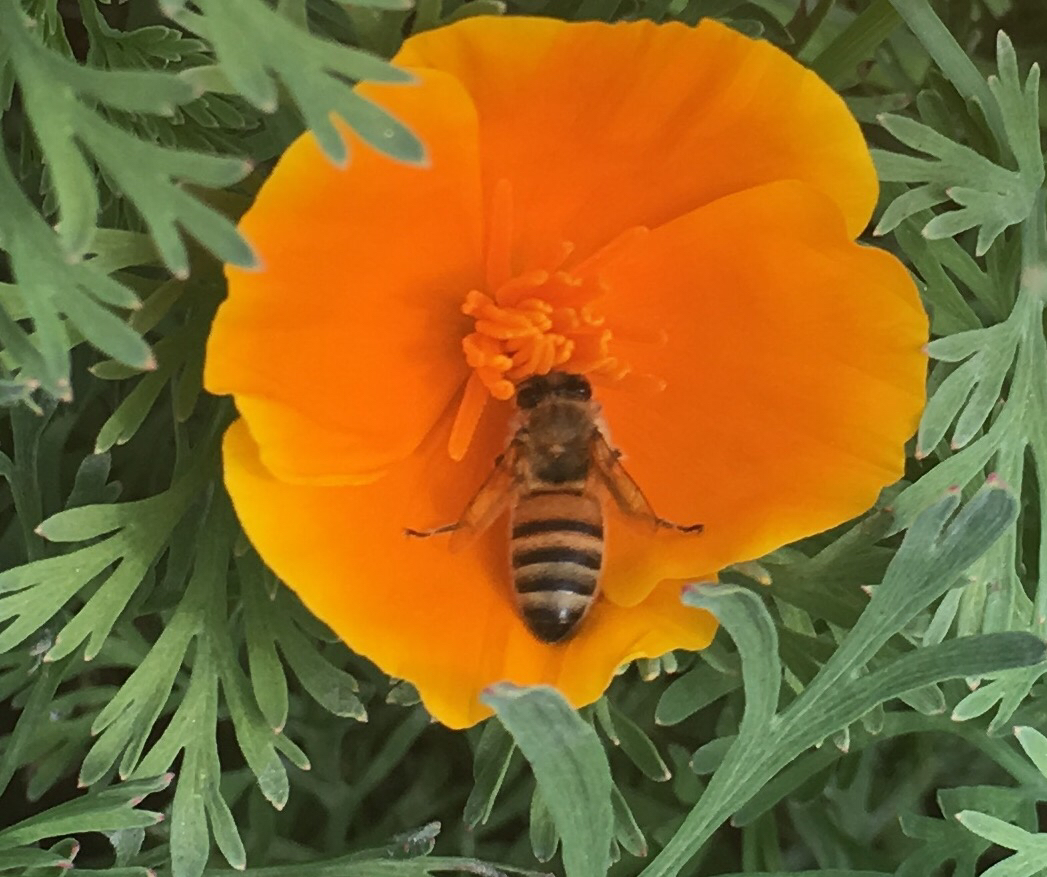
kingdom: Animalia
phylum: Arthropoda
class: Insecta
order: Hymenoptera
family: Apidae
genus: Apis
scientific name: Apis mellifera
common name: Honey bee
